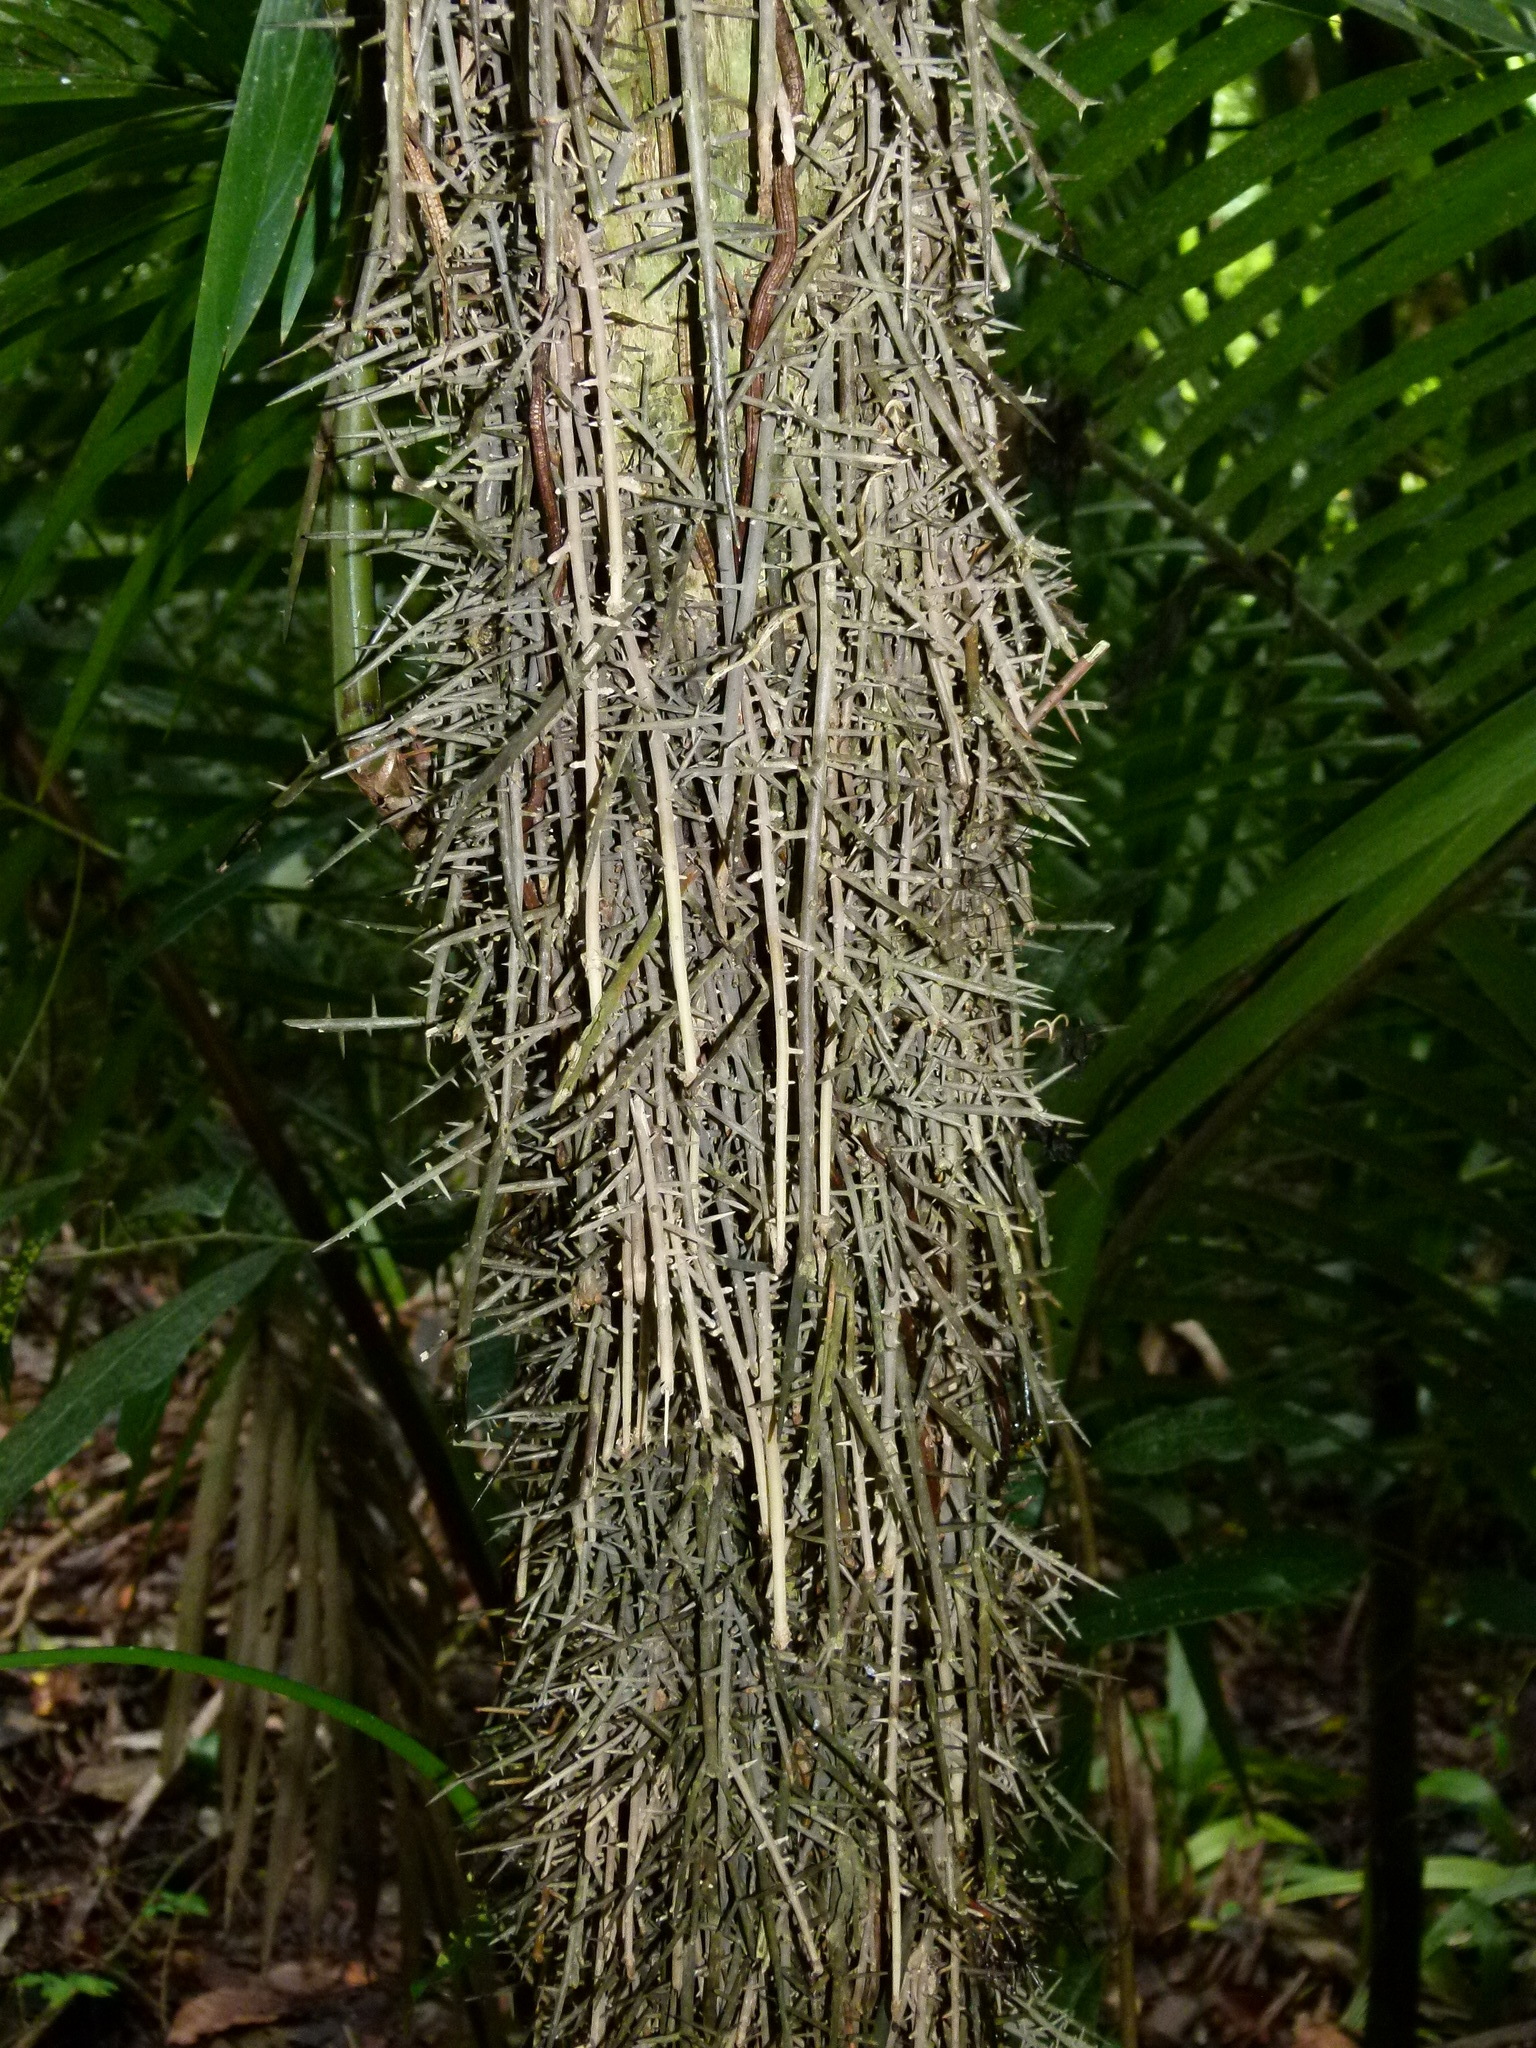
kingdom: Plantae
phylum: Tracheophyta
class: Liliopsida
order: Arecales
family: Arecaceae
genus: Cryosophila
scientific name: Cryosophila stauracantha
